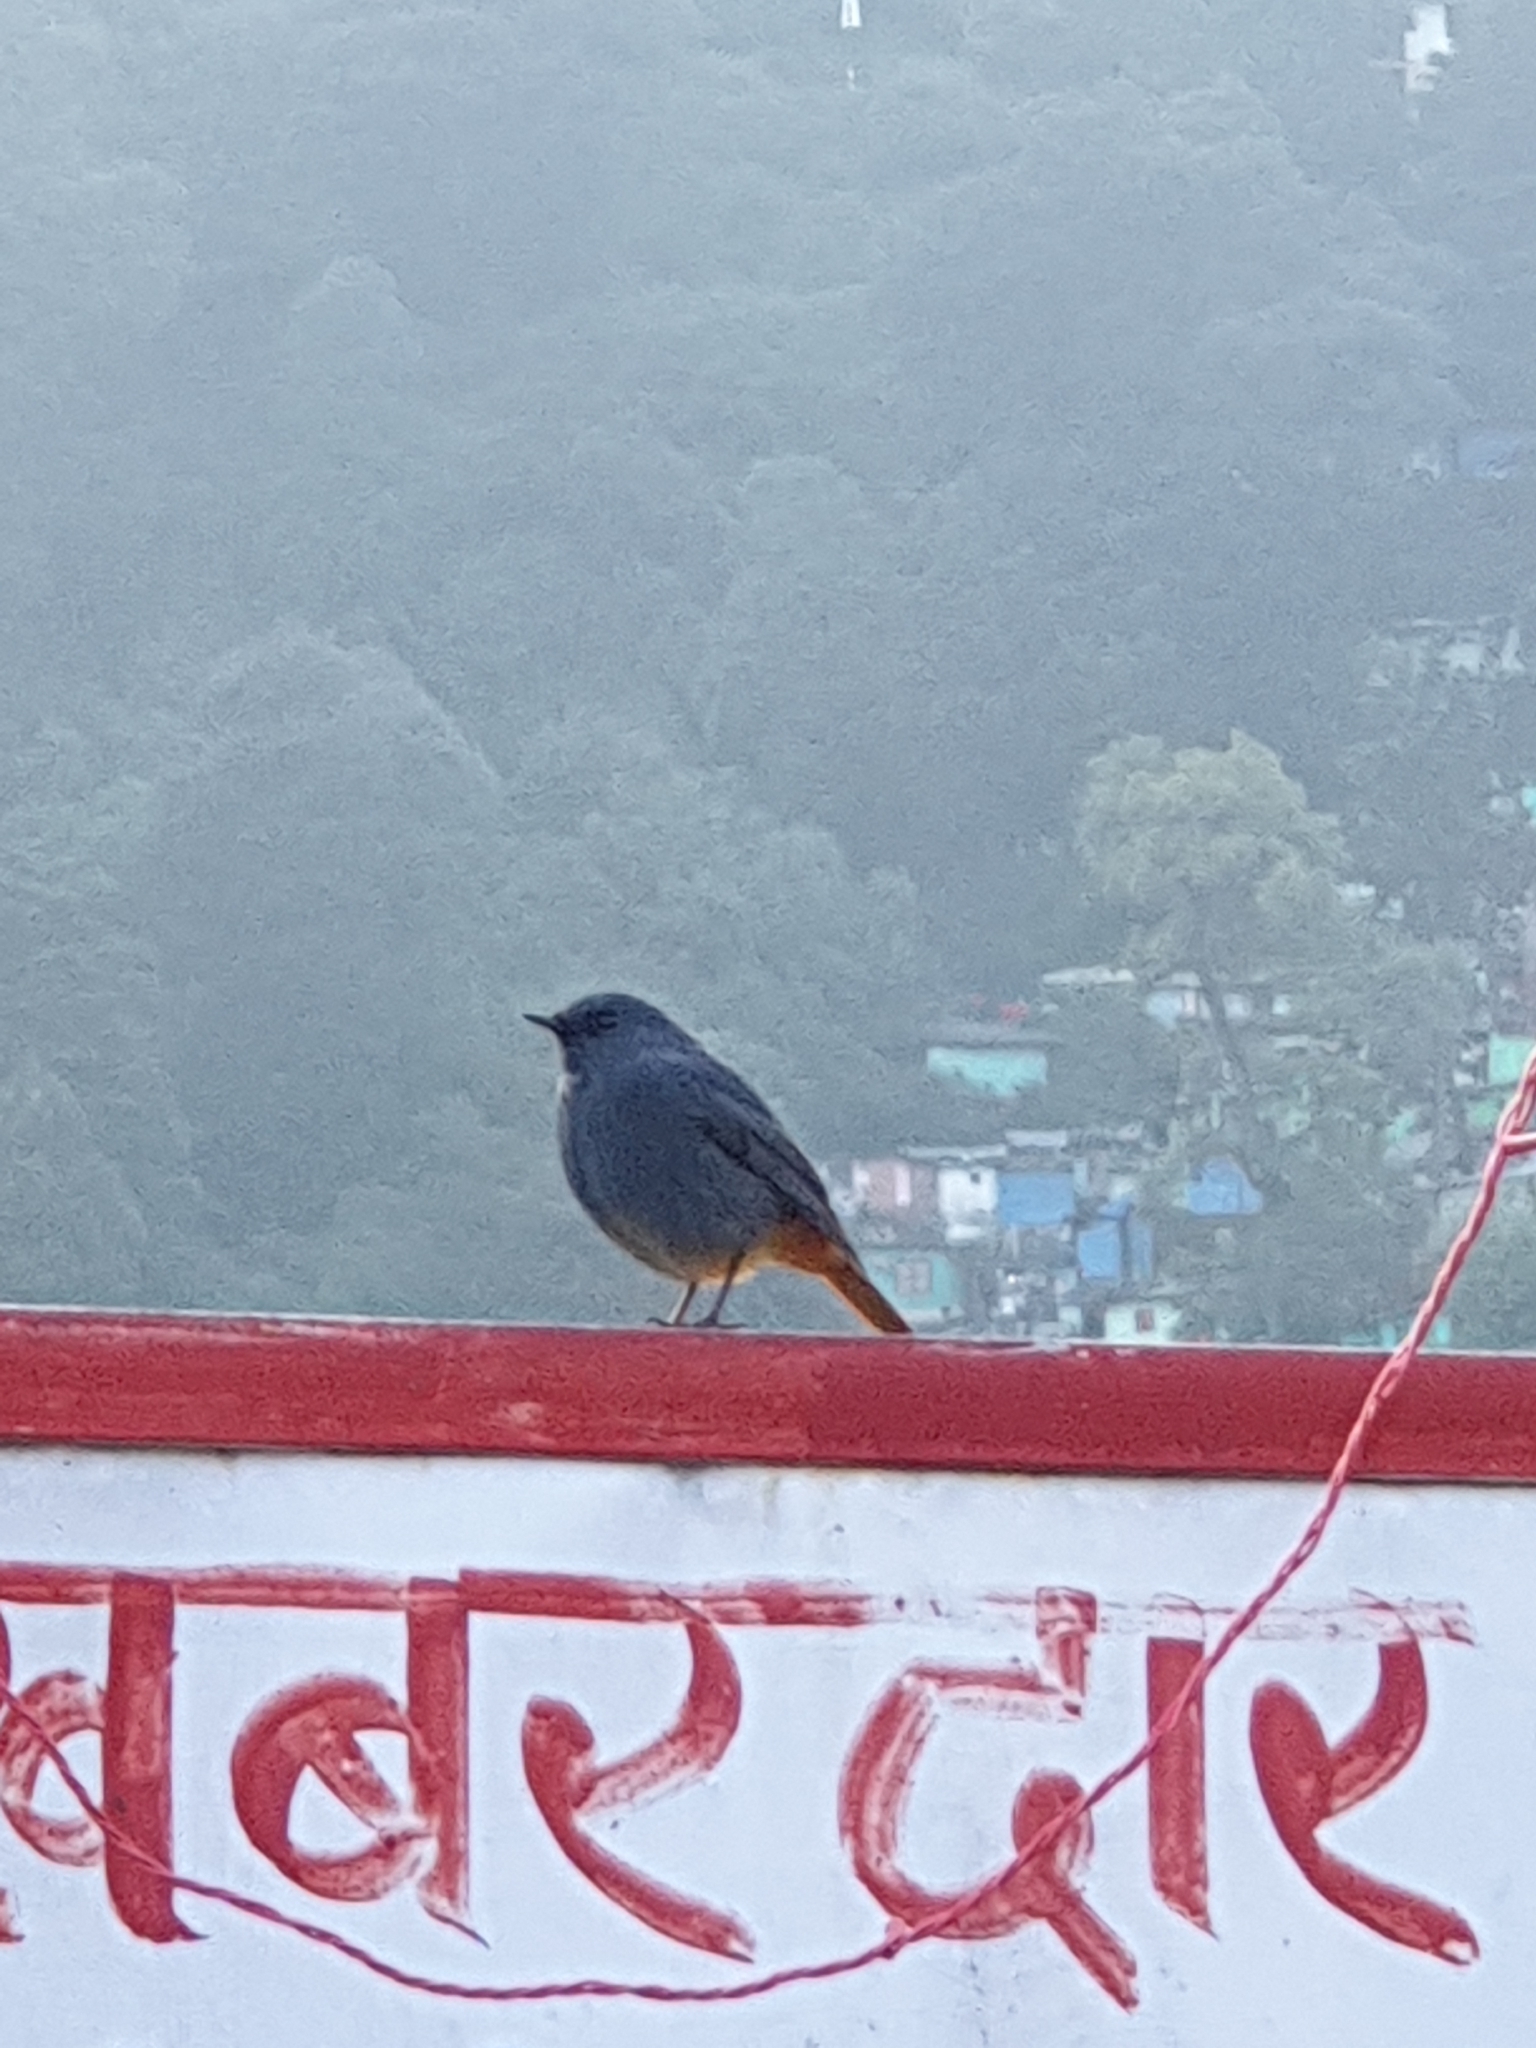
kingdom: Animalia
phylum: Chordata
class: Aves
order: Passeriformes
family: Muscicapidae
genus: Phoenicurus
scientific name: Phoenicurus fuliginosus
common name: Plumbeous water redstart
